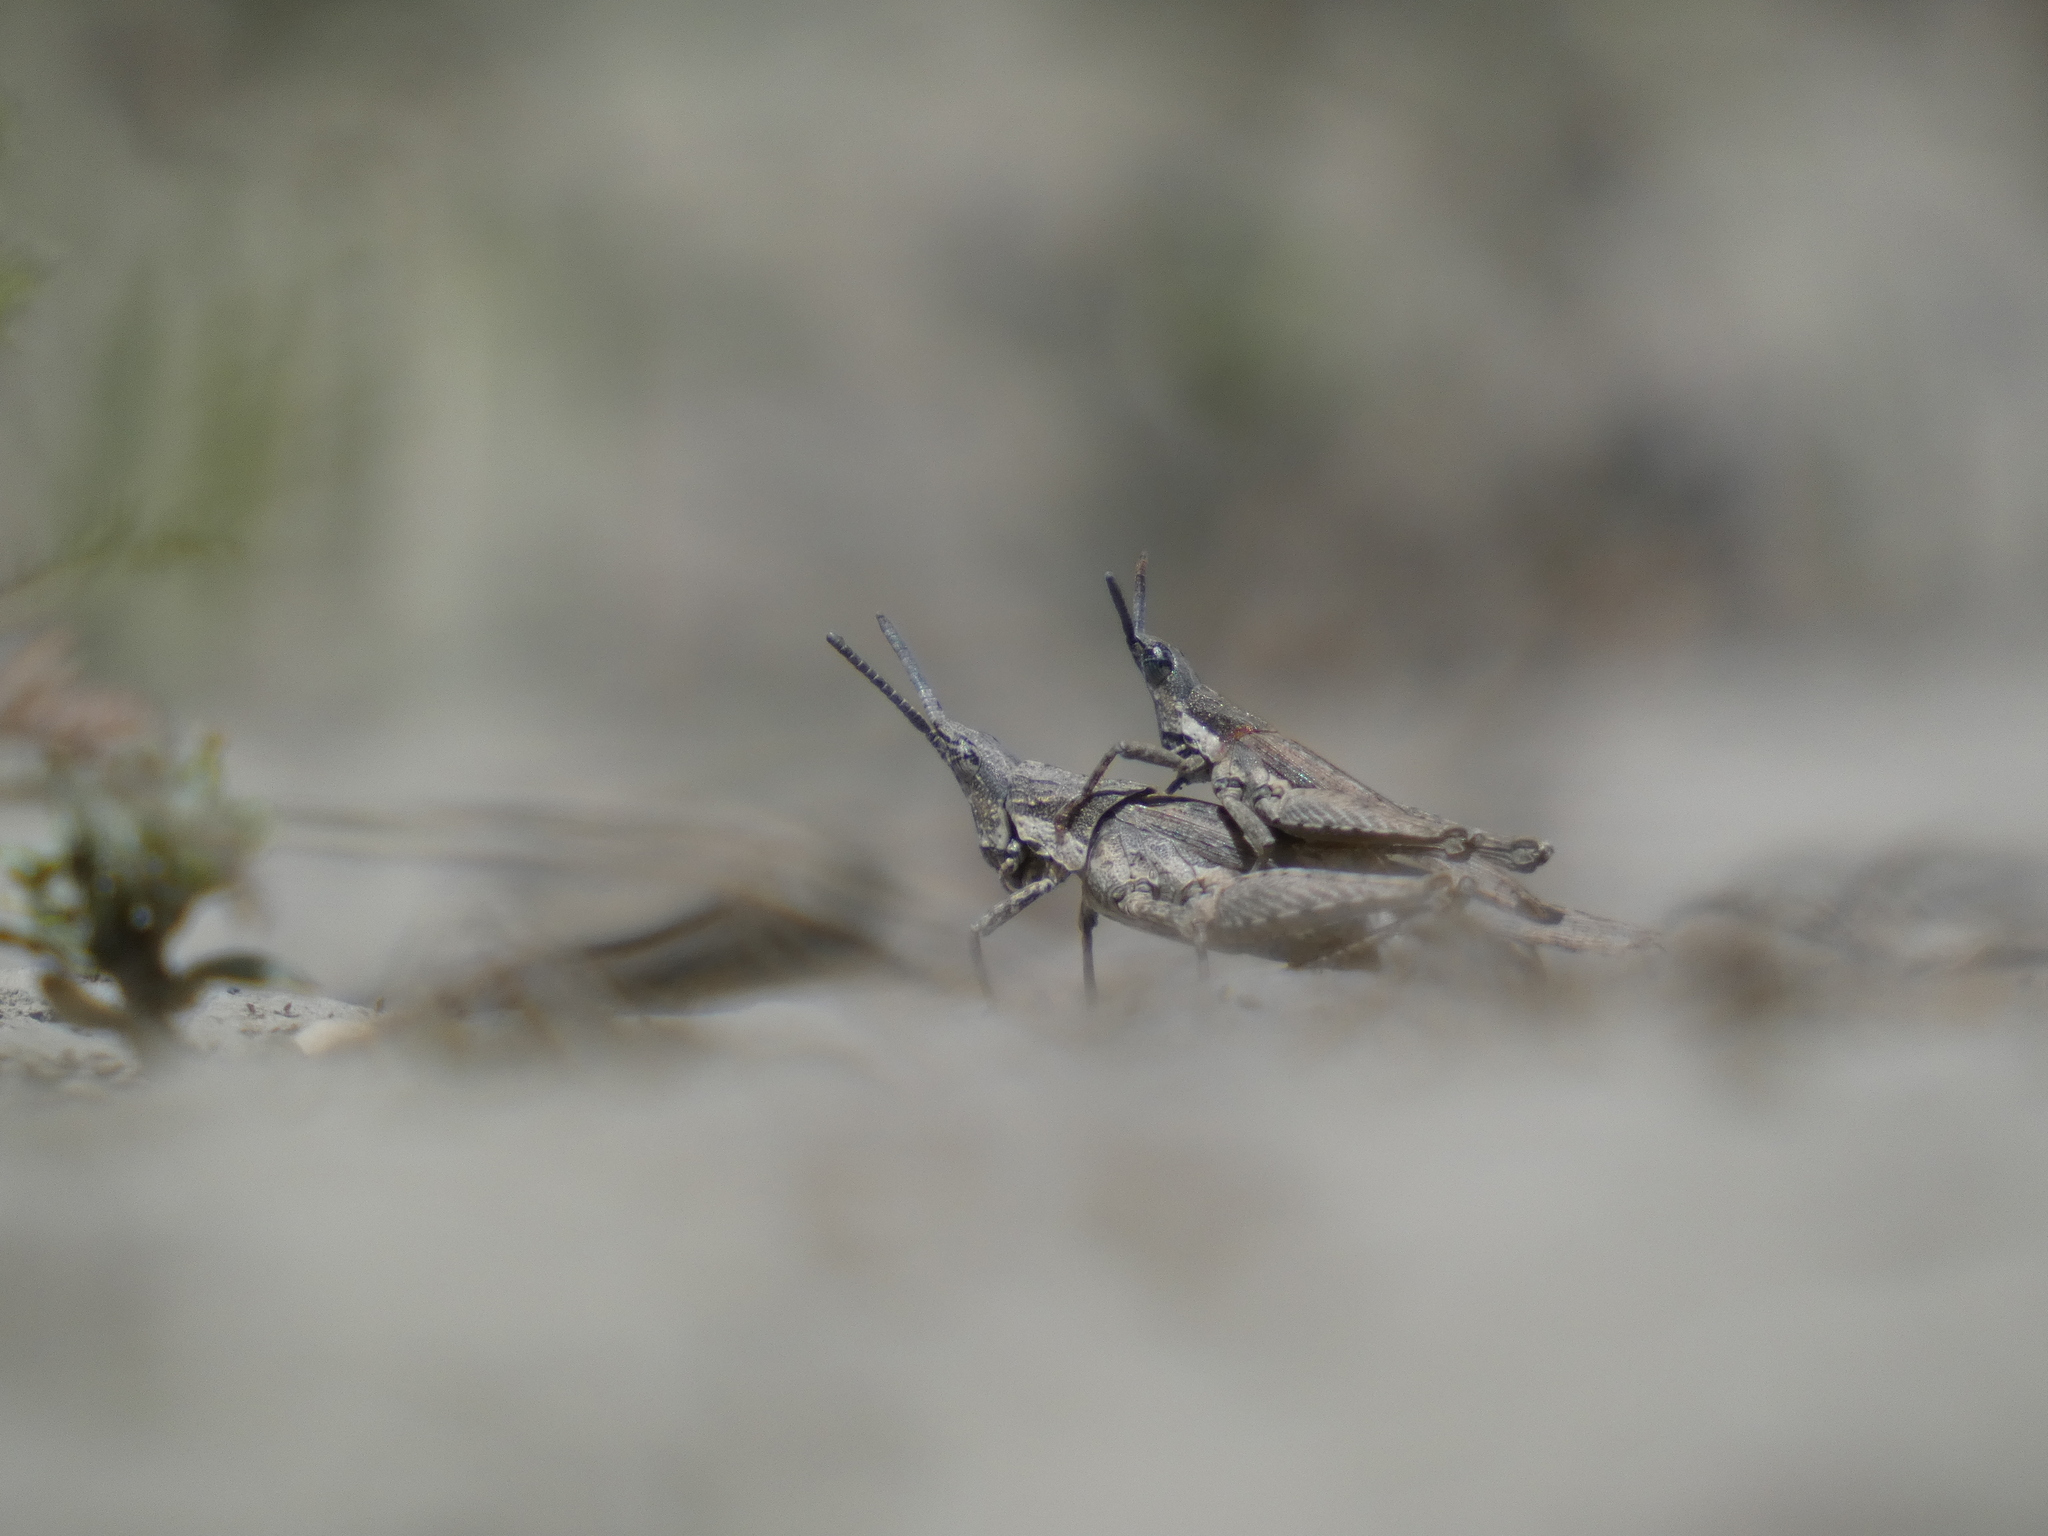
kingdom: Animalia
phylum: Arthropoda
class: Insecta
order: Orthoptera
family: Pyrgomorphidae
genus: Pyrgomorpha
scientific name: Pyrgomorpha conica
